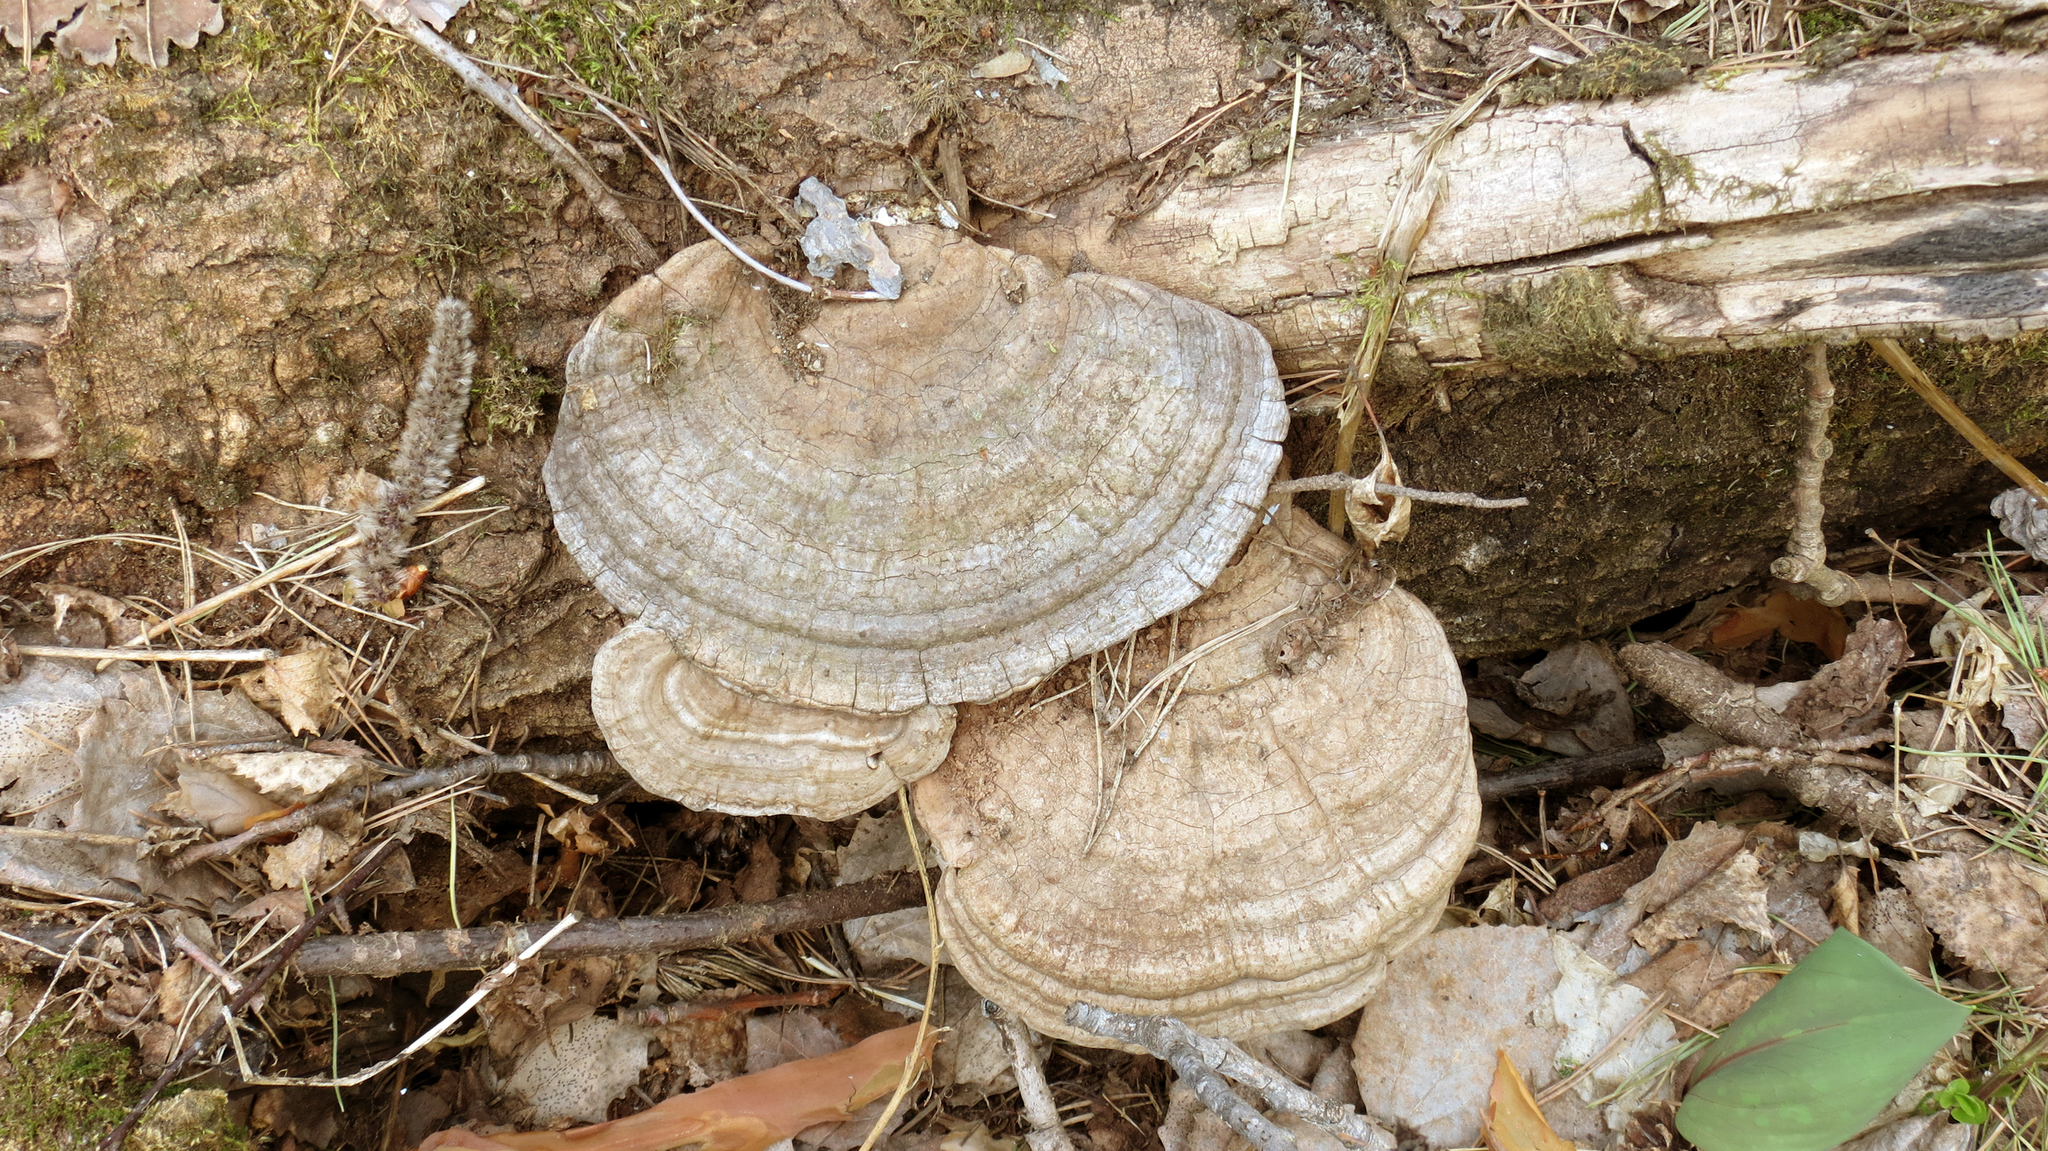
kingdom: Fungi
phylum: Basidiomycota
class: Agaricomycetes
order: Polyporales
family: Polyporaceae
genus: Ganoderma
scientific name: Ganoderma applanatum
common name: Artist's bracket
